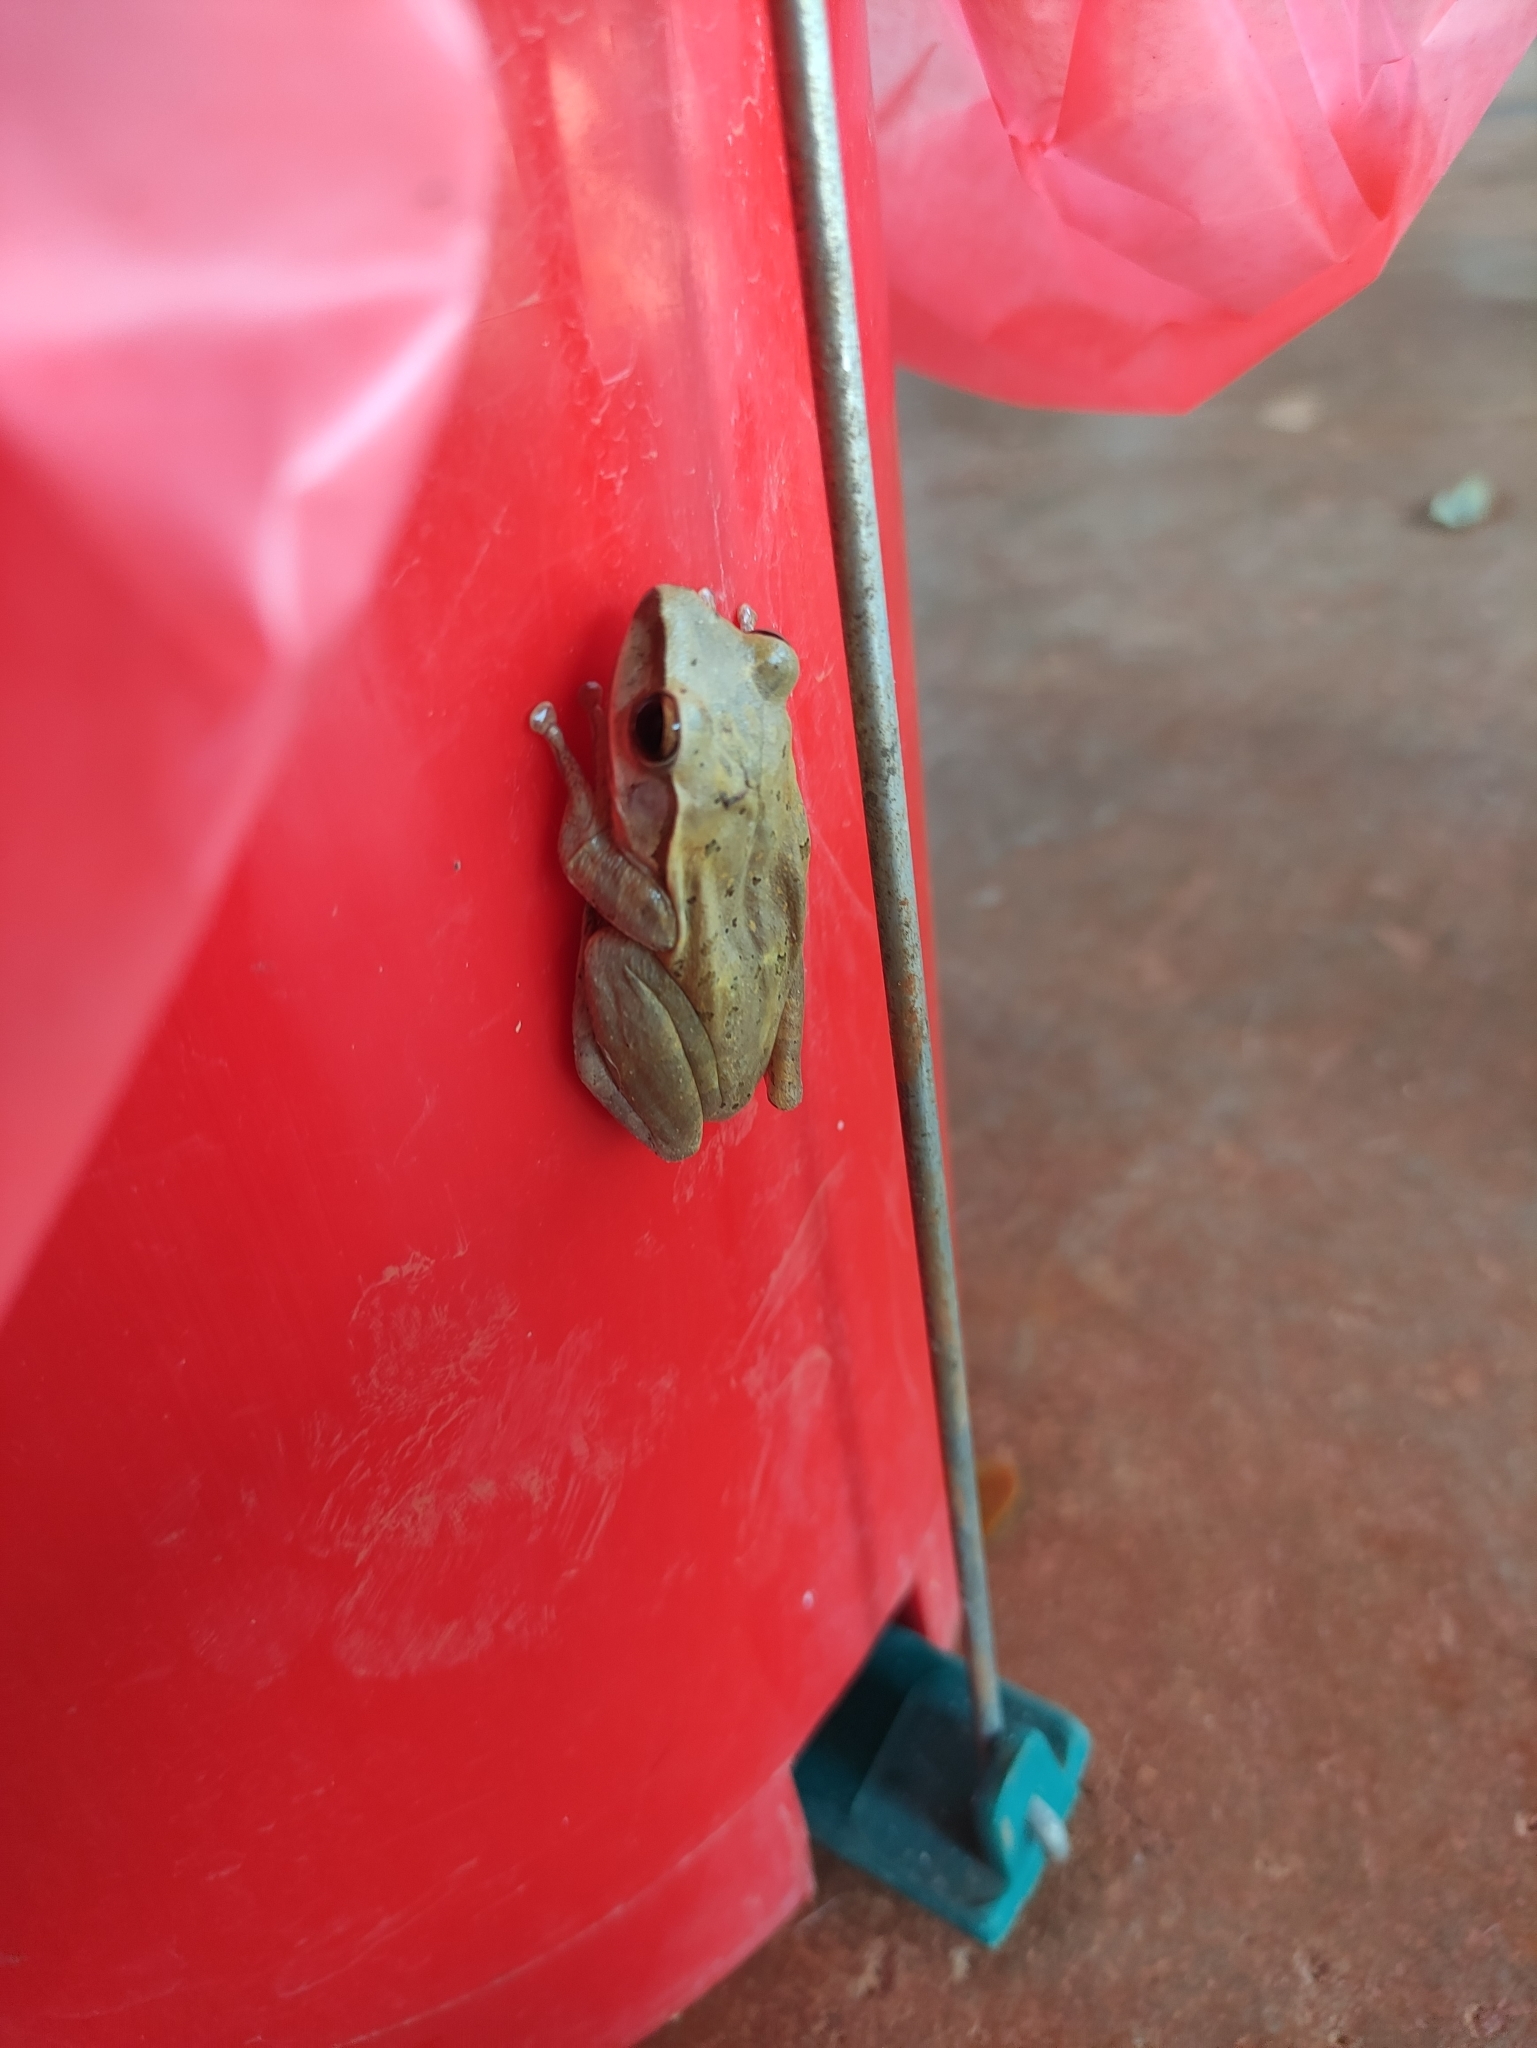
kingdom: Animalia
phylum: Chordata
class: Amphibia
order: Anura
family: Rhacophoridae
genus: Polypedates
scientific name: Polypedates megacephalus
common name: Hong kong whipping frog
